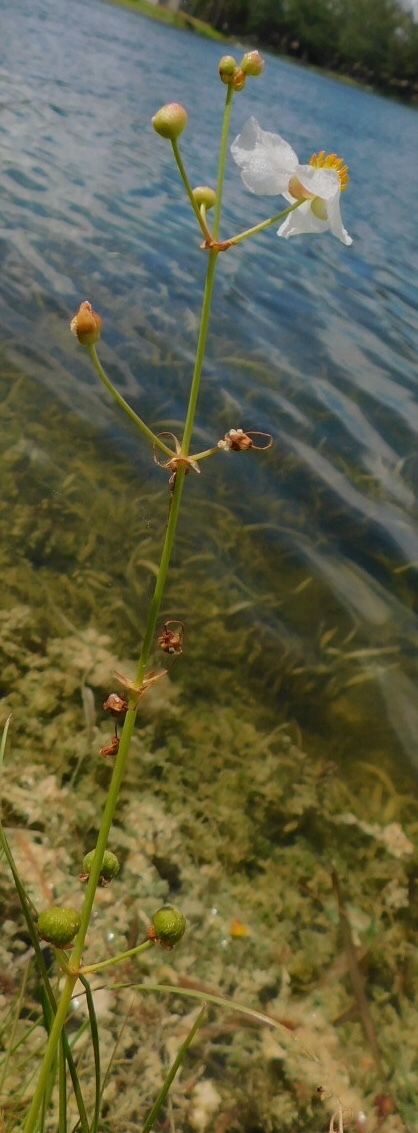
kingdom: Plantae
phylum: Tracheophyta
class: Liliopsida
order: Alismatales
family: Alismataceae
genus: Sagittaria
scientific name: Sagittaria lancifolia
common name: Lance-leaf arrowhead
